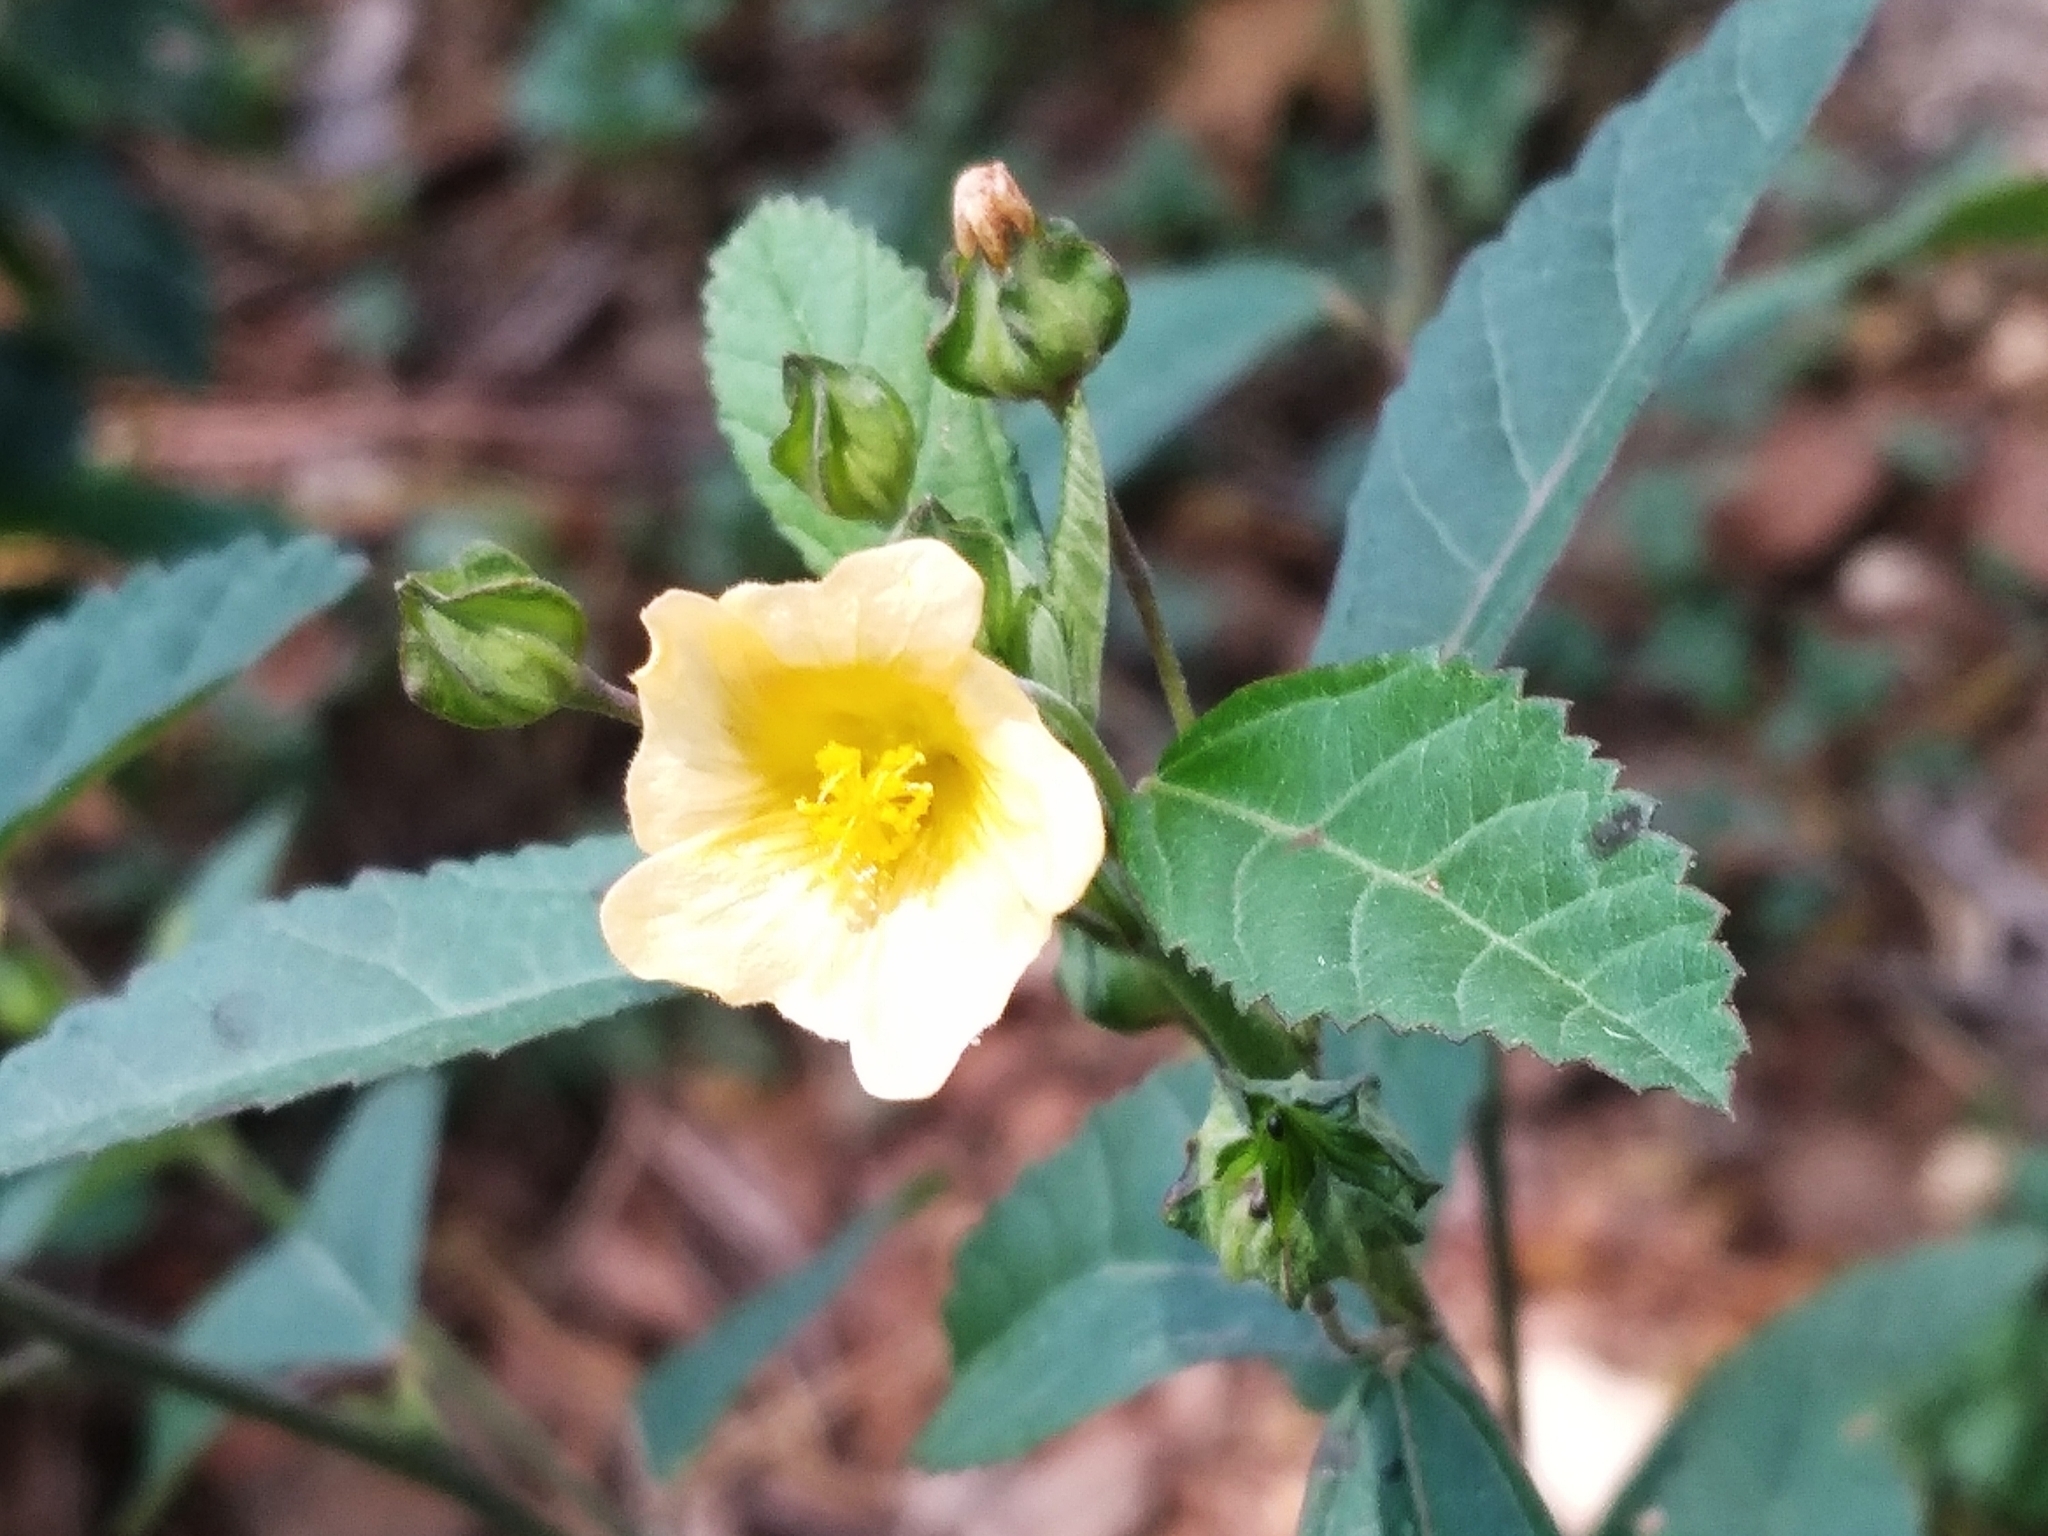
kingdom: Plantae
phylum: Tracheophyta
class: Magnoliopsida
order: Malvales
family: Malvaceae
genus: Sida
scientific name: Sida rhombifolia
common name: Queensland-hemp
